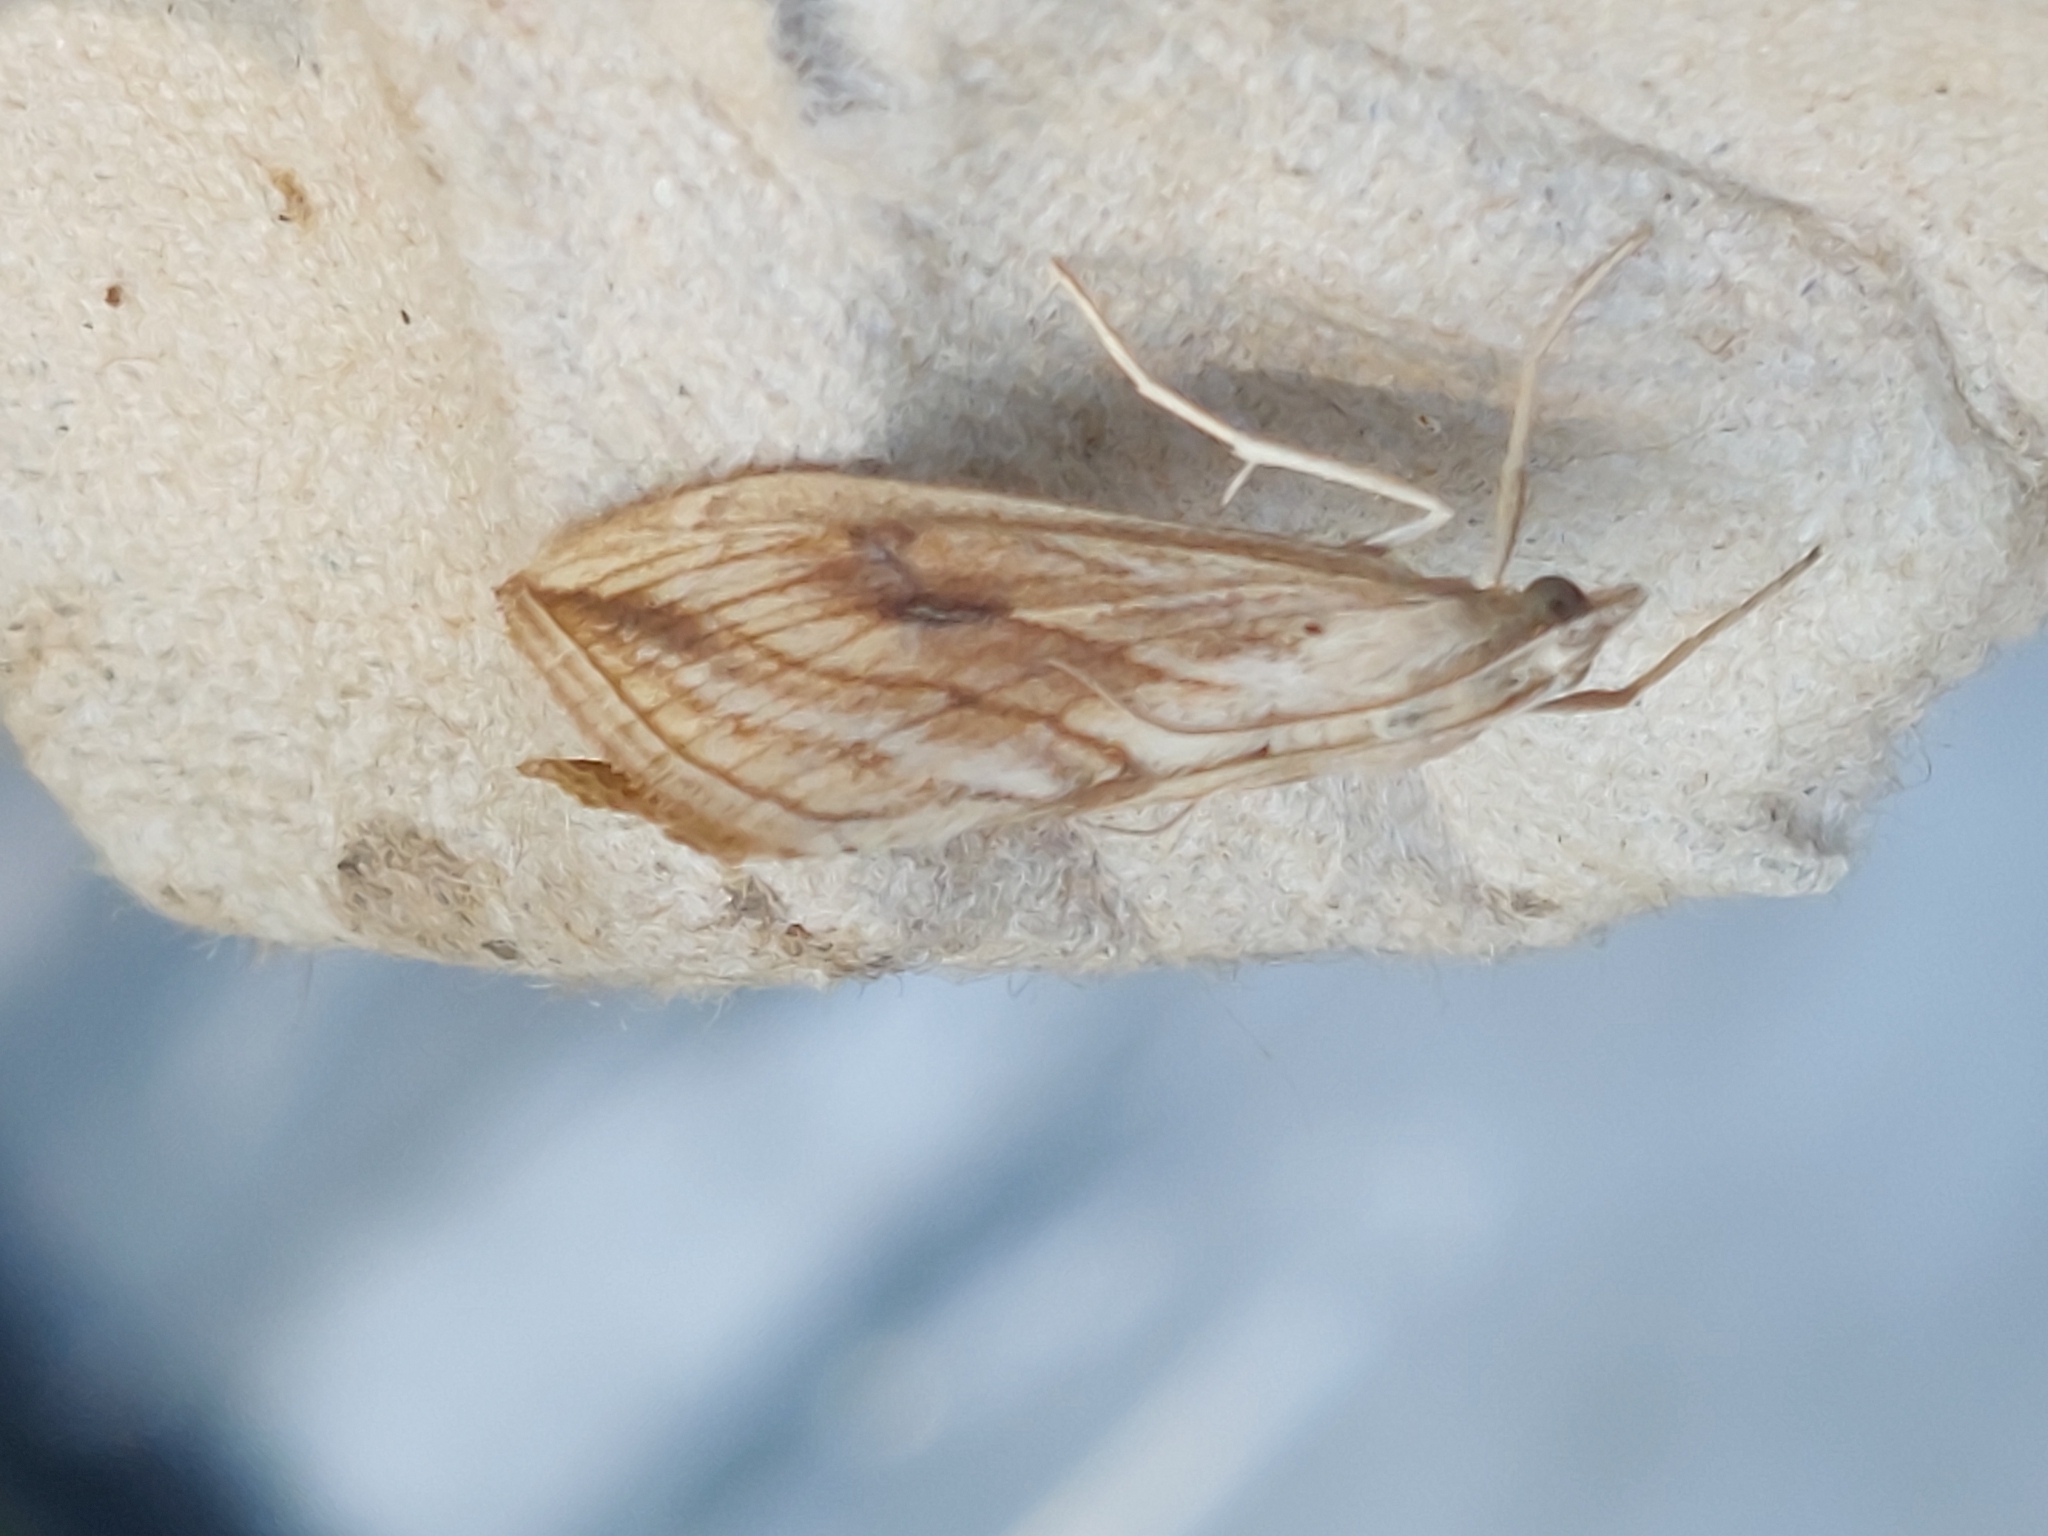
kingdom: Animalia
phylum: Arthropoda
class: Insecta
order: Lepidoptera
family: Crambidae
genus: Evergestis
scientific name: Evergestis forficalis
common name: Garden pebble
